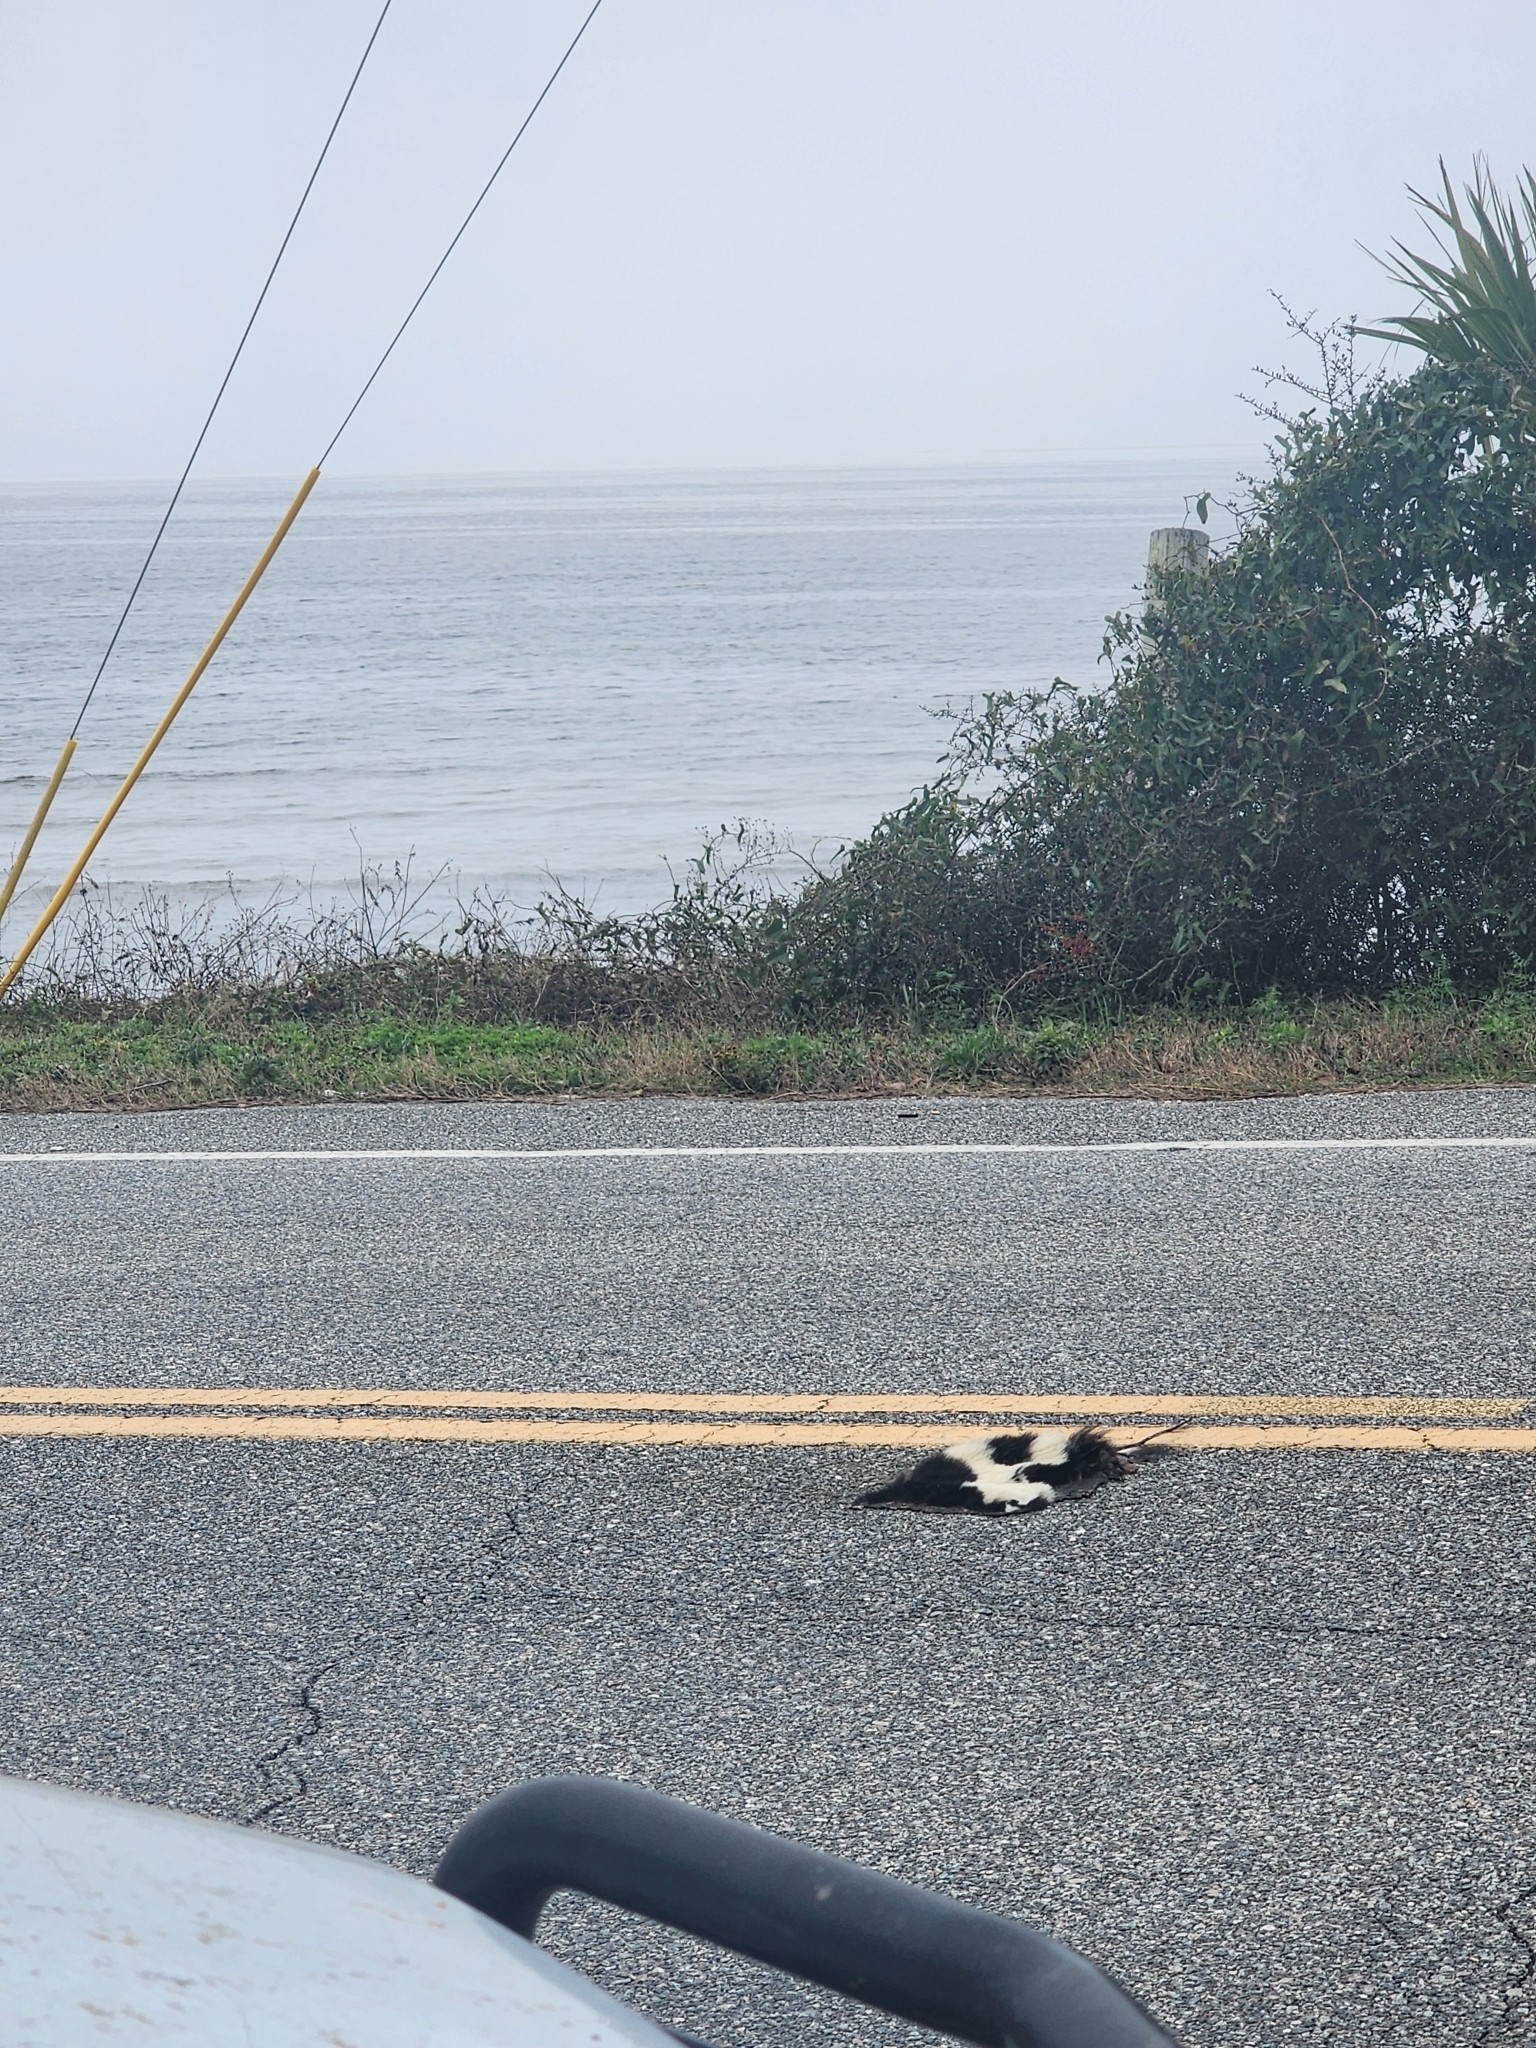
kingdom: Animalia
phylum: Chordata
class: Mammalia
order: Carnivora
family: Mephitidae
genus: Mephitis
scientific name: Mephitis mephitis
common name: Striped skunk
